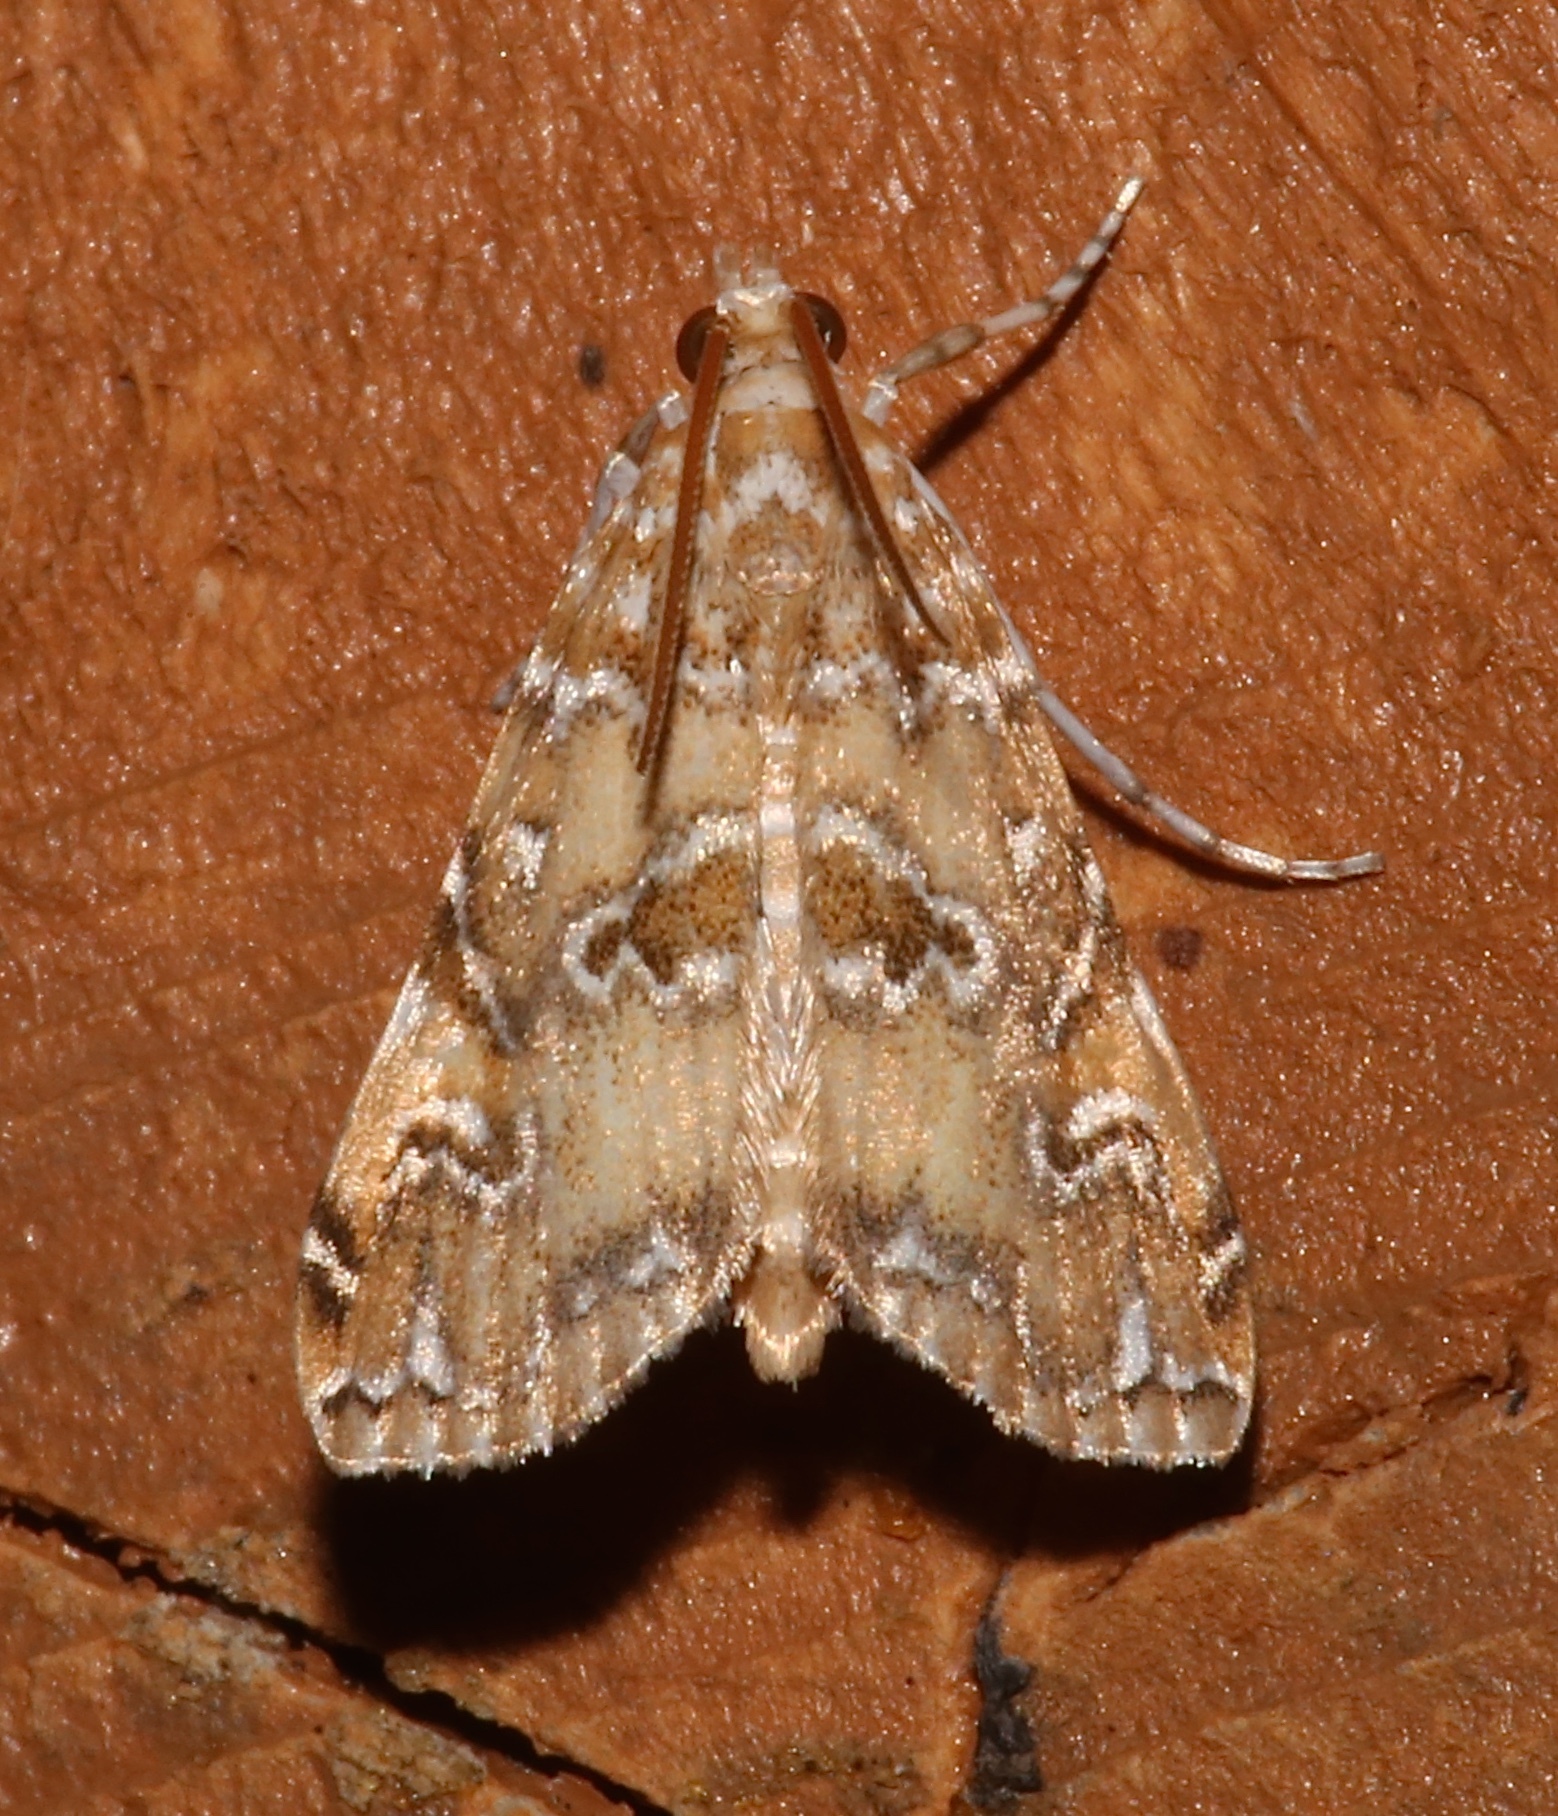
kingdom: Animalia
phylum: Arthropoda
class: Insecta
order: Lepidoptera
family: Crambidae
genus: Elophila
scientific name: Elophila gyralis
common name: Waterlily borer moth
